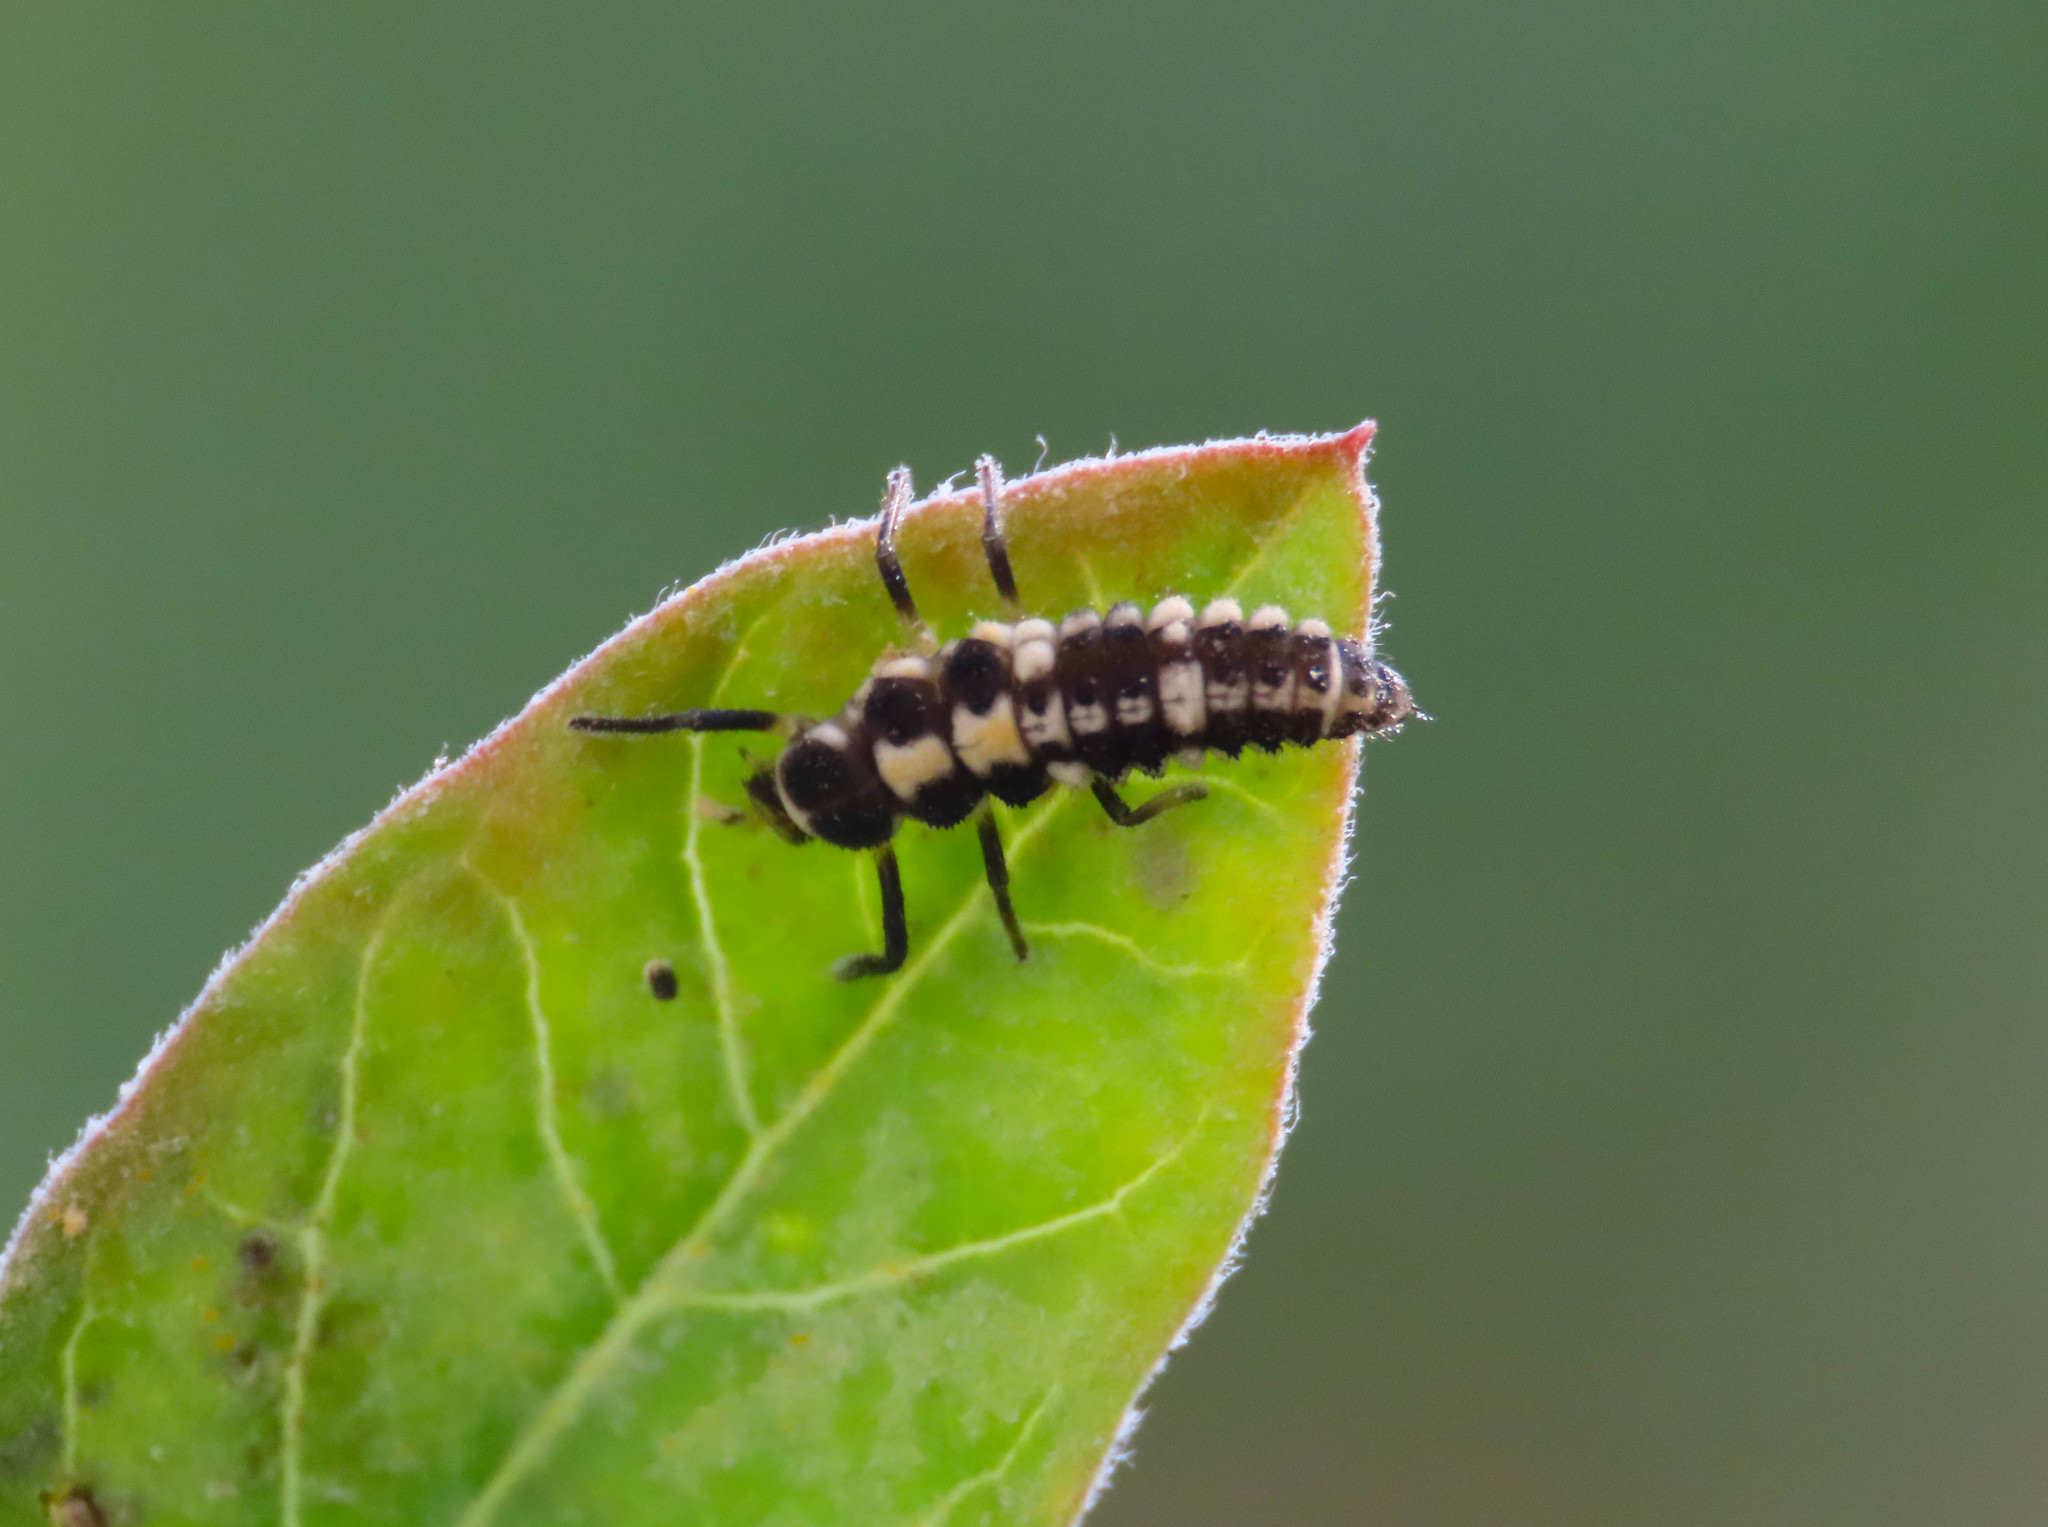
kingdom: Animalia
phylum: Arthropoda
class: Insecta
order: Coleoptera
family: Coccinellidae
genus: Propylaea
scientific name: Propylaea quatuordecimpunctata
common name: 14-spotted ladybird beetle
